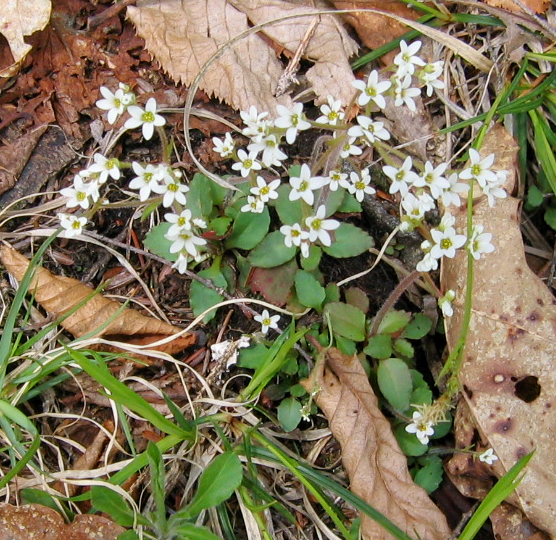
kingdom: Plantae
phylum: Tracheophyta
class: Magnoliopsida
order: Saxifragales
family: Saxifragaceae
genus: Micranthes
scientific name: Micranthes virginiensis
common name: Early saxifrage
